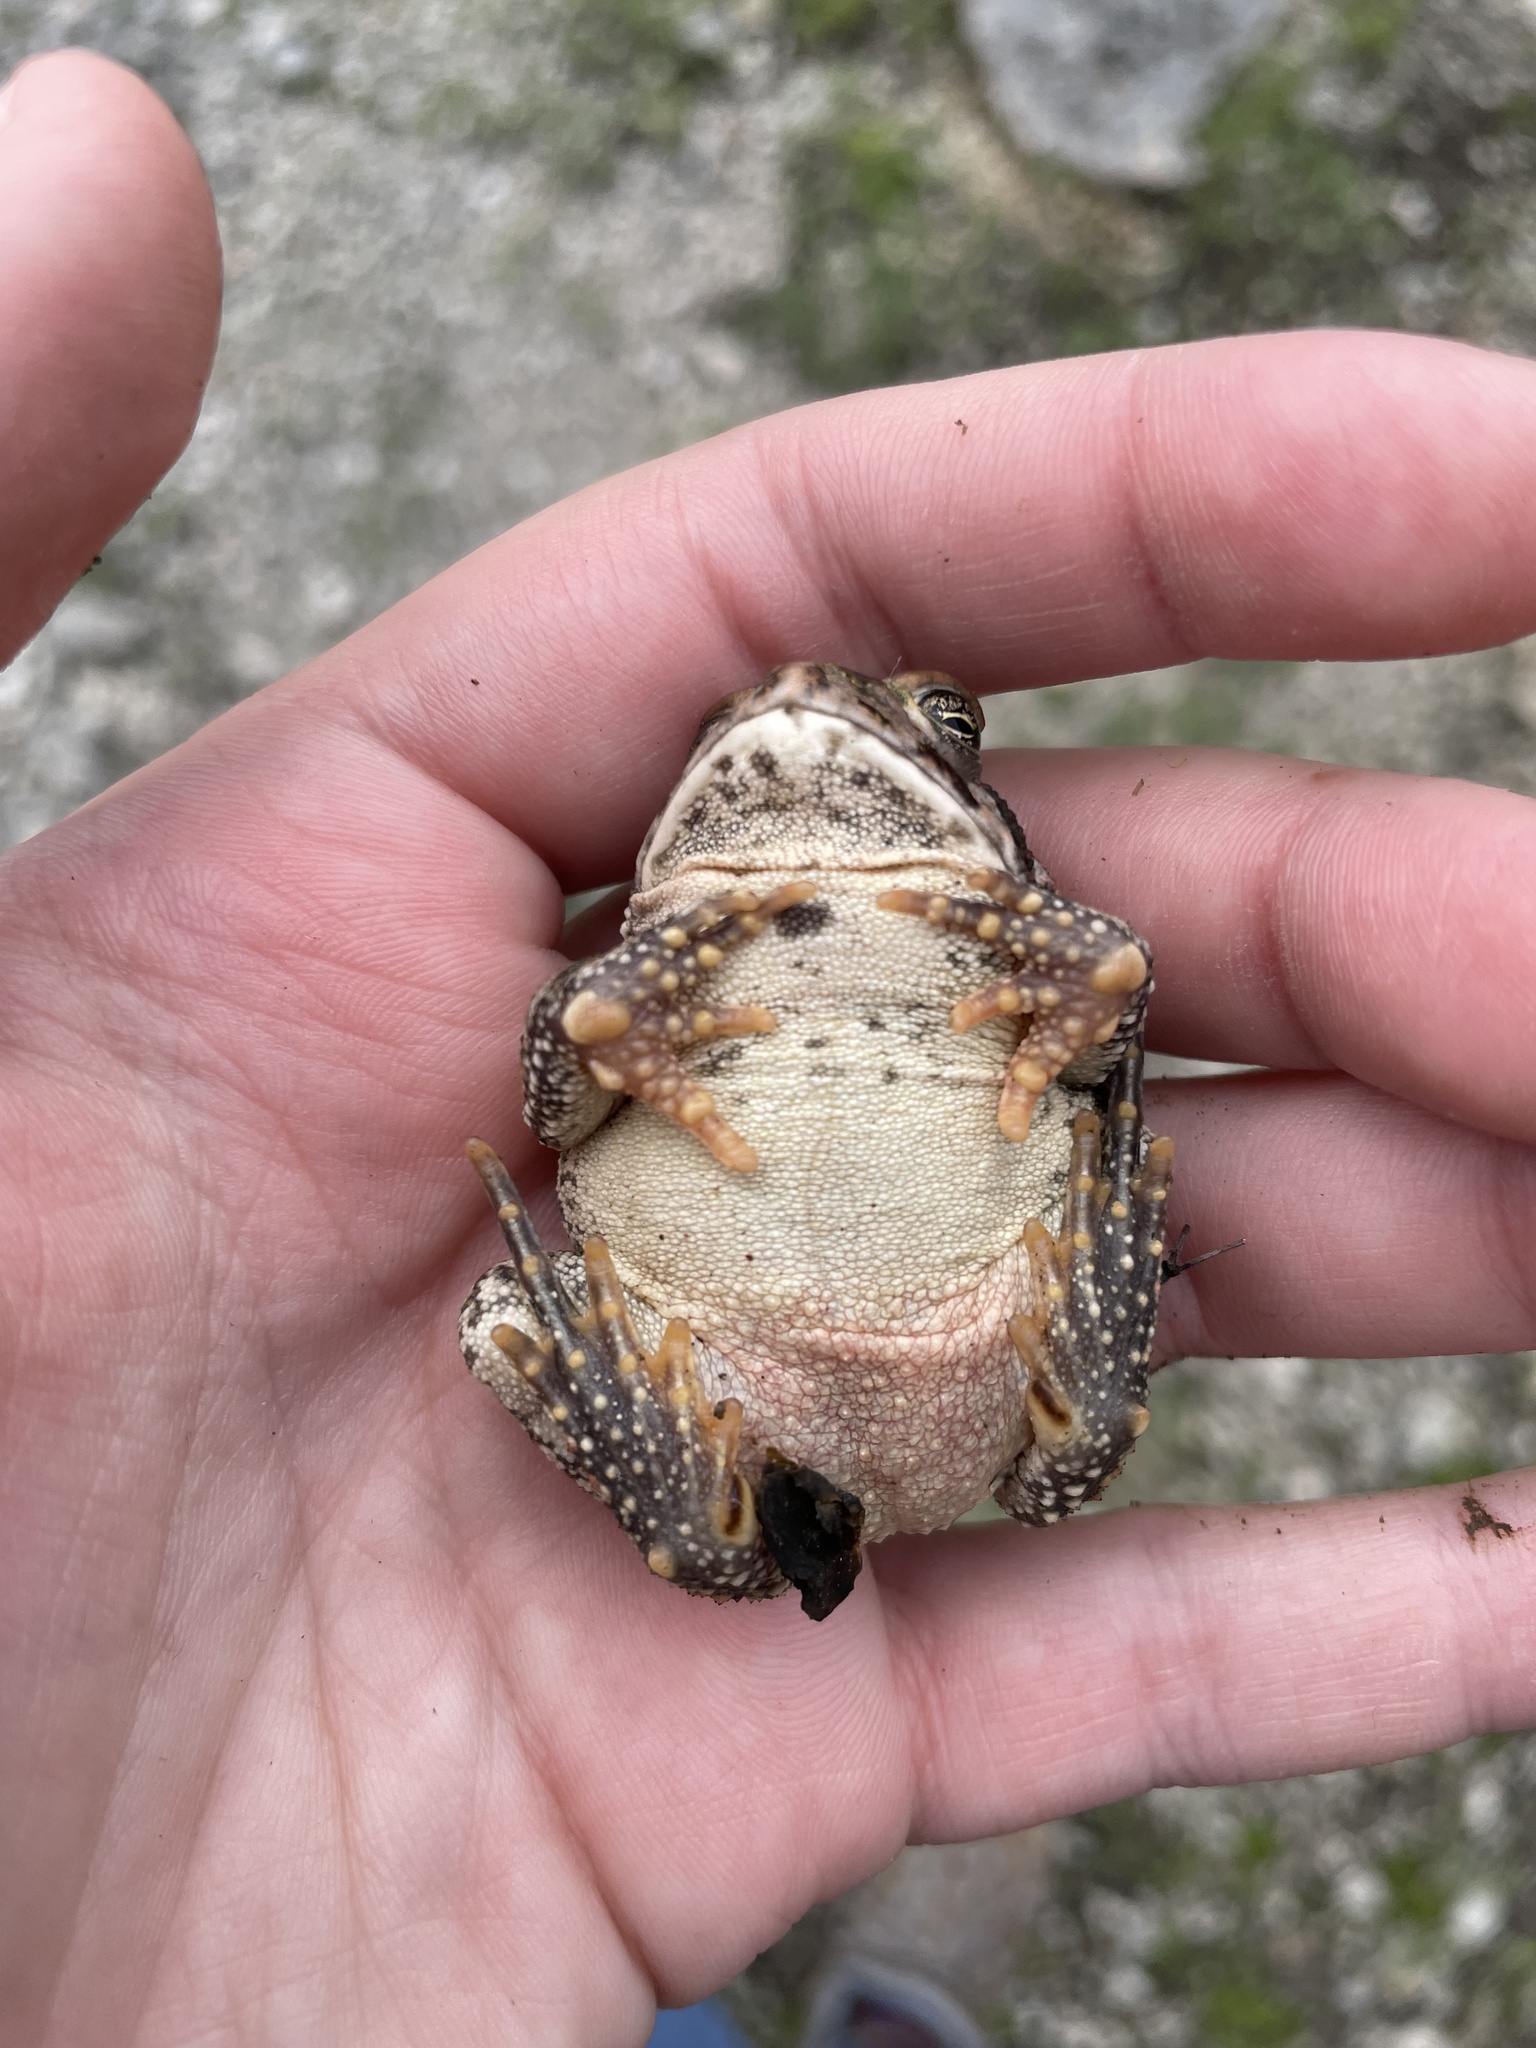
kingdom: Animalia
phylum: Chordata
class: Amphibia
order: Anura
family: Bufonidae
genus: Anaxyrus
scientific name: Anaxyrus fowleri
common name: Fowler's toad
